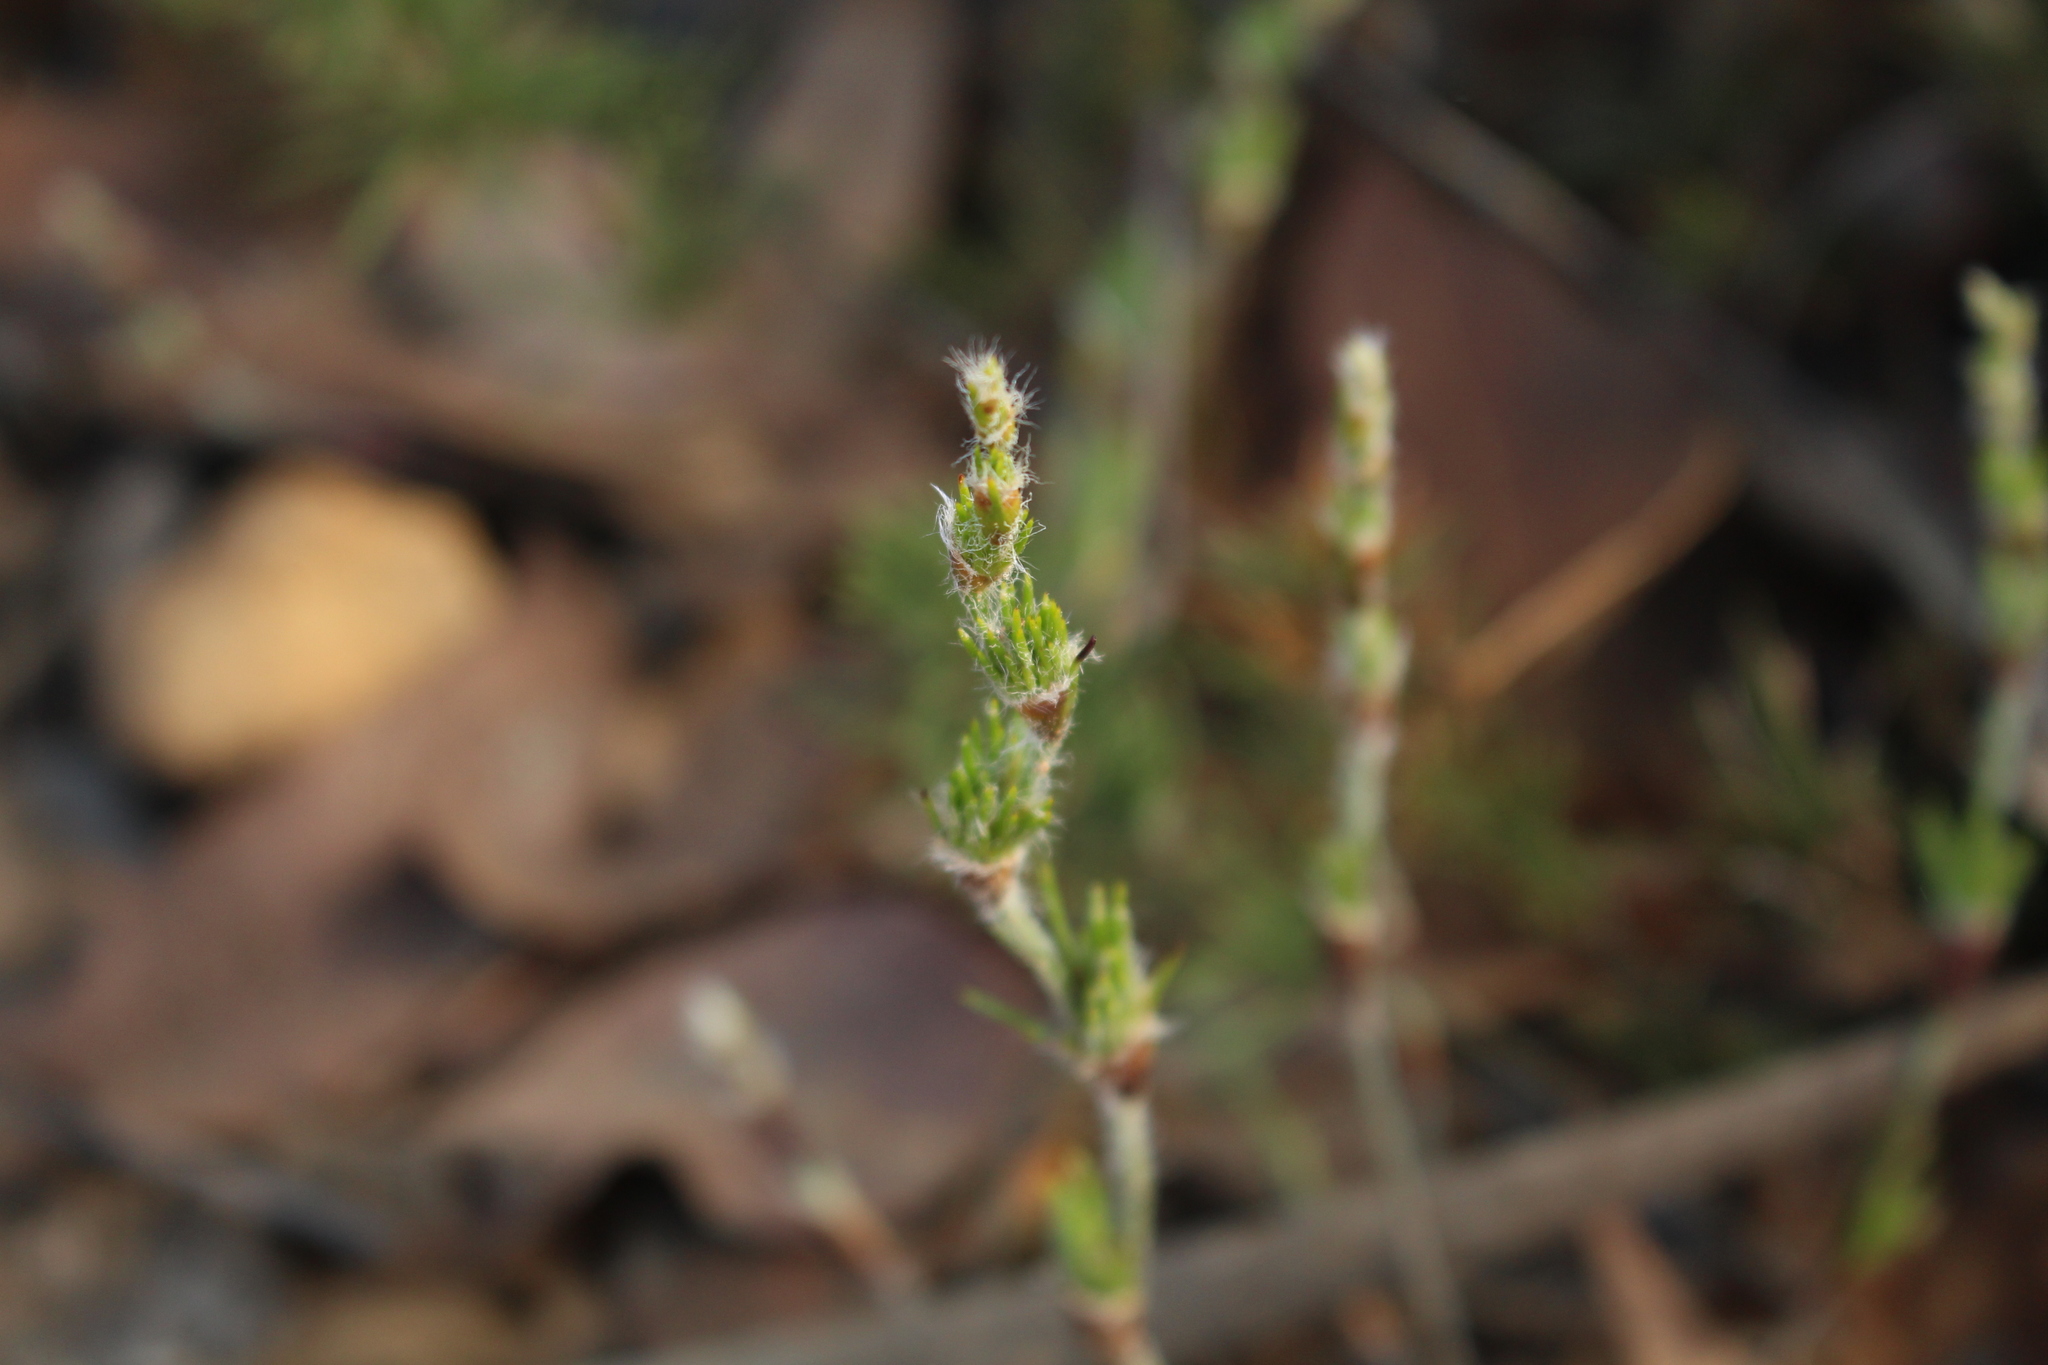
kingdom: Plantae
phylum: Tracheophyta
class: Liliopsida
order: Poales
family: Restionaceae
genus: Desmocladus
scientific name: Desmocladus fasciculatus
